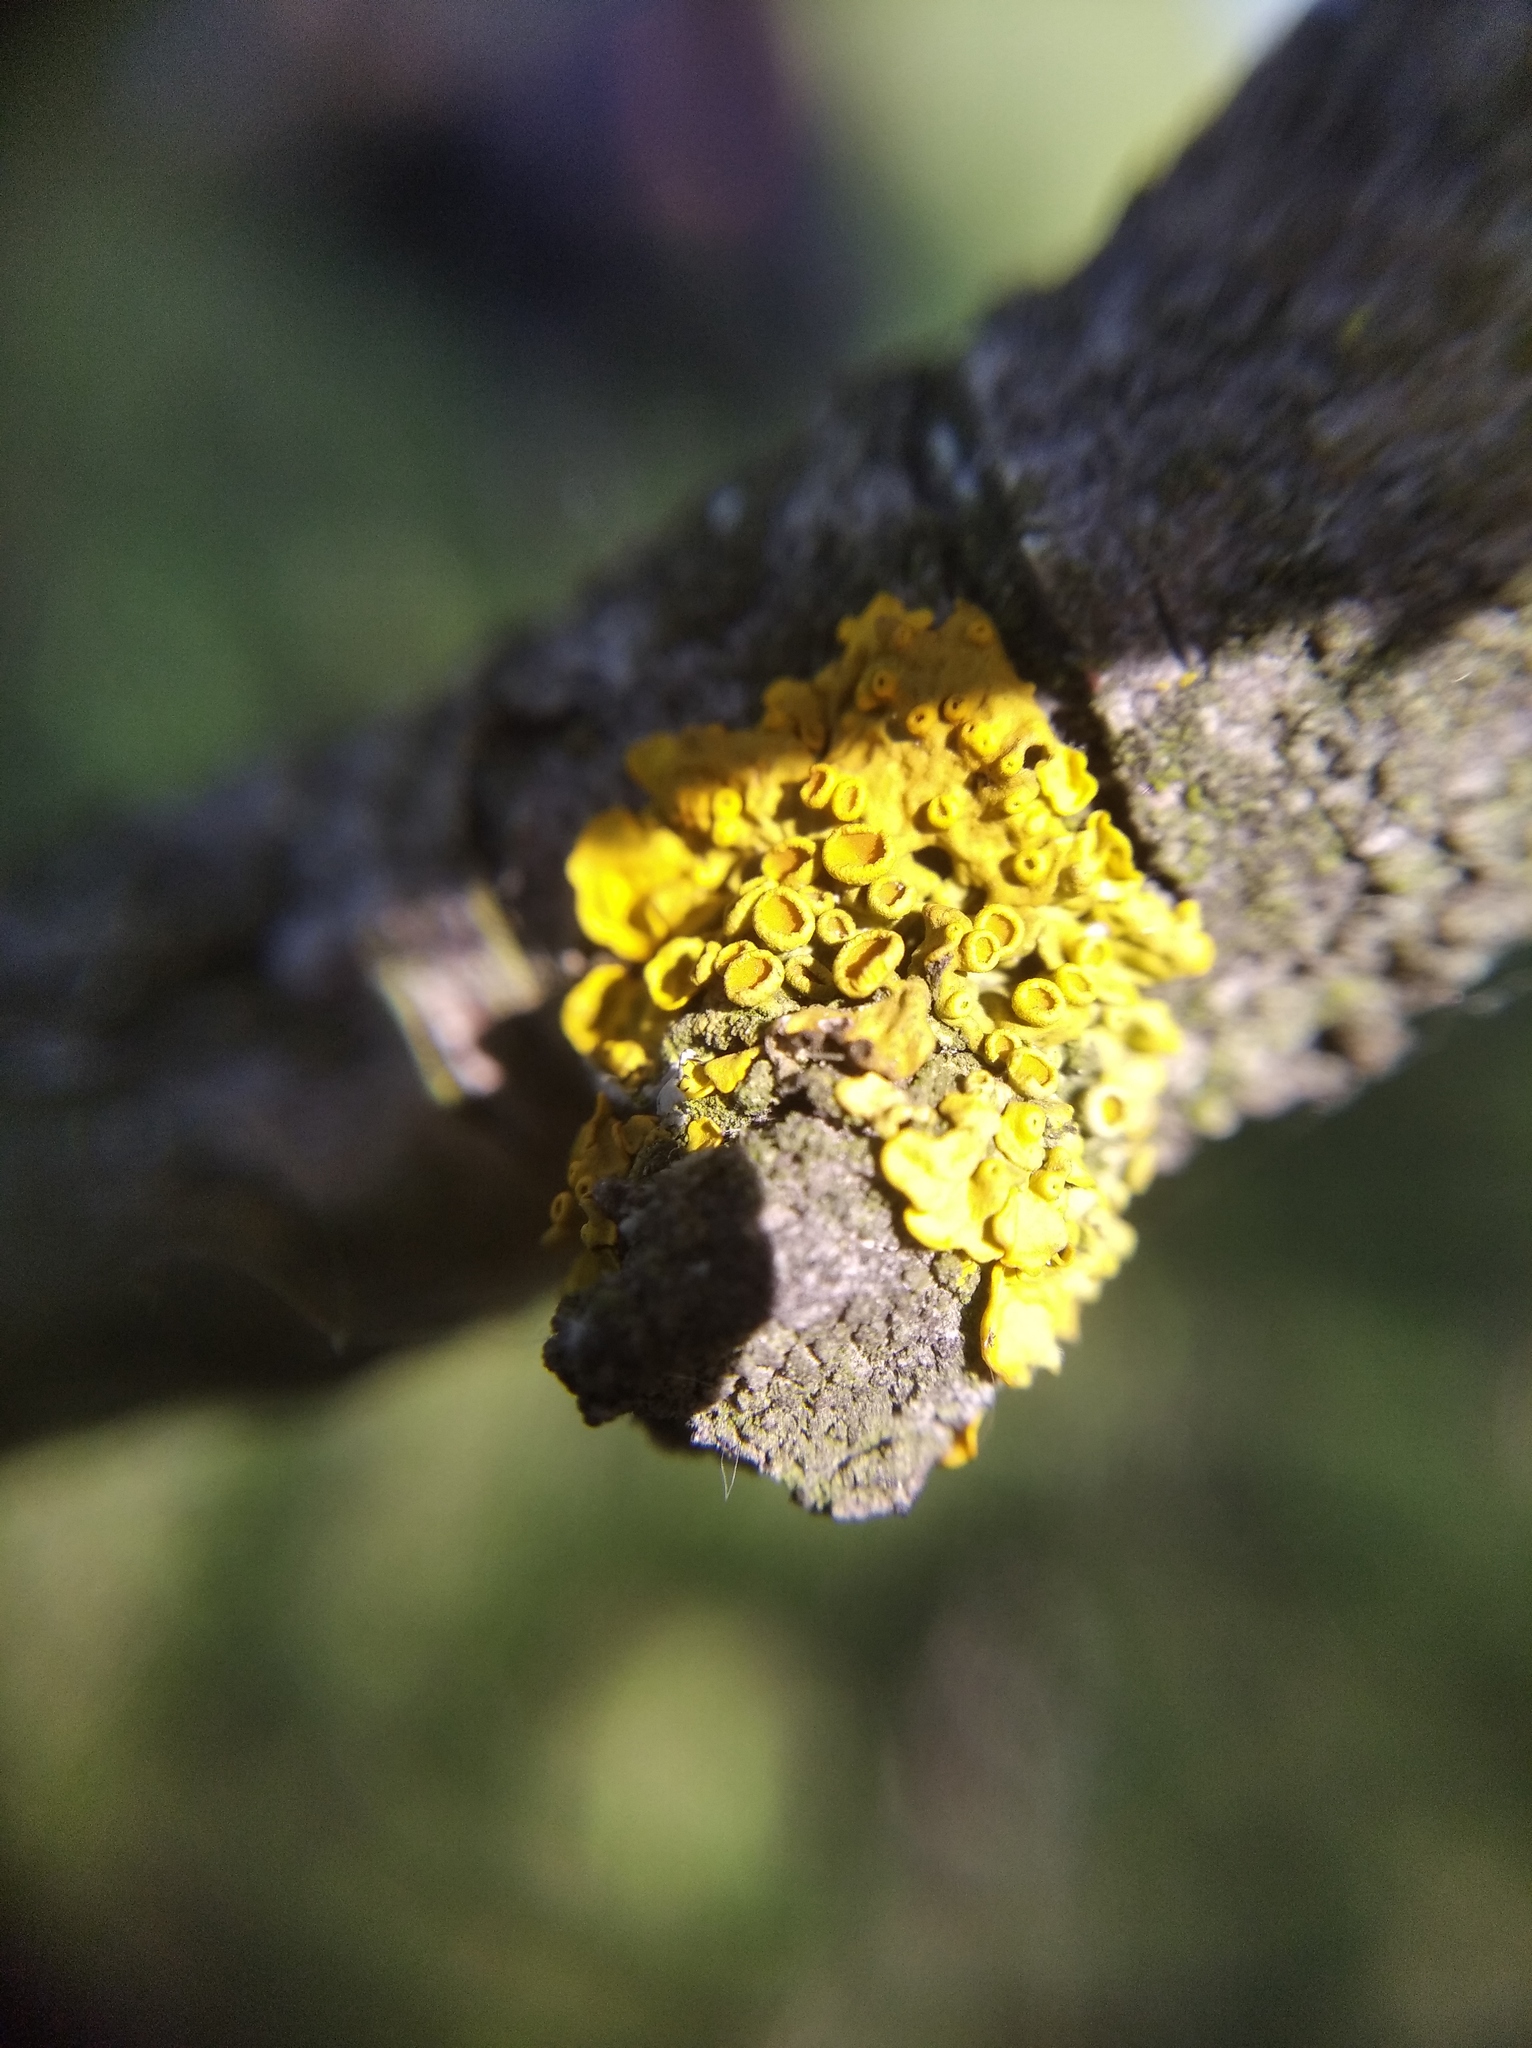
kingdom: Fungi
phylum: Ascomycota
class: Lecanoromycetes
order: Teloschistales
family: Teloschistaceae
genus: Xanthoria
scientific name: Xanthoria parietina
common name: Common orange lichen
